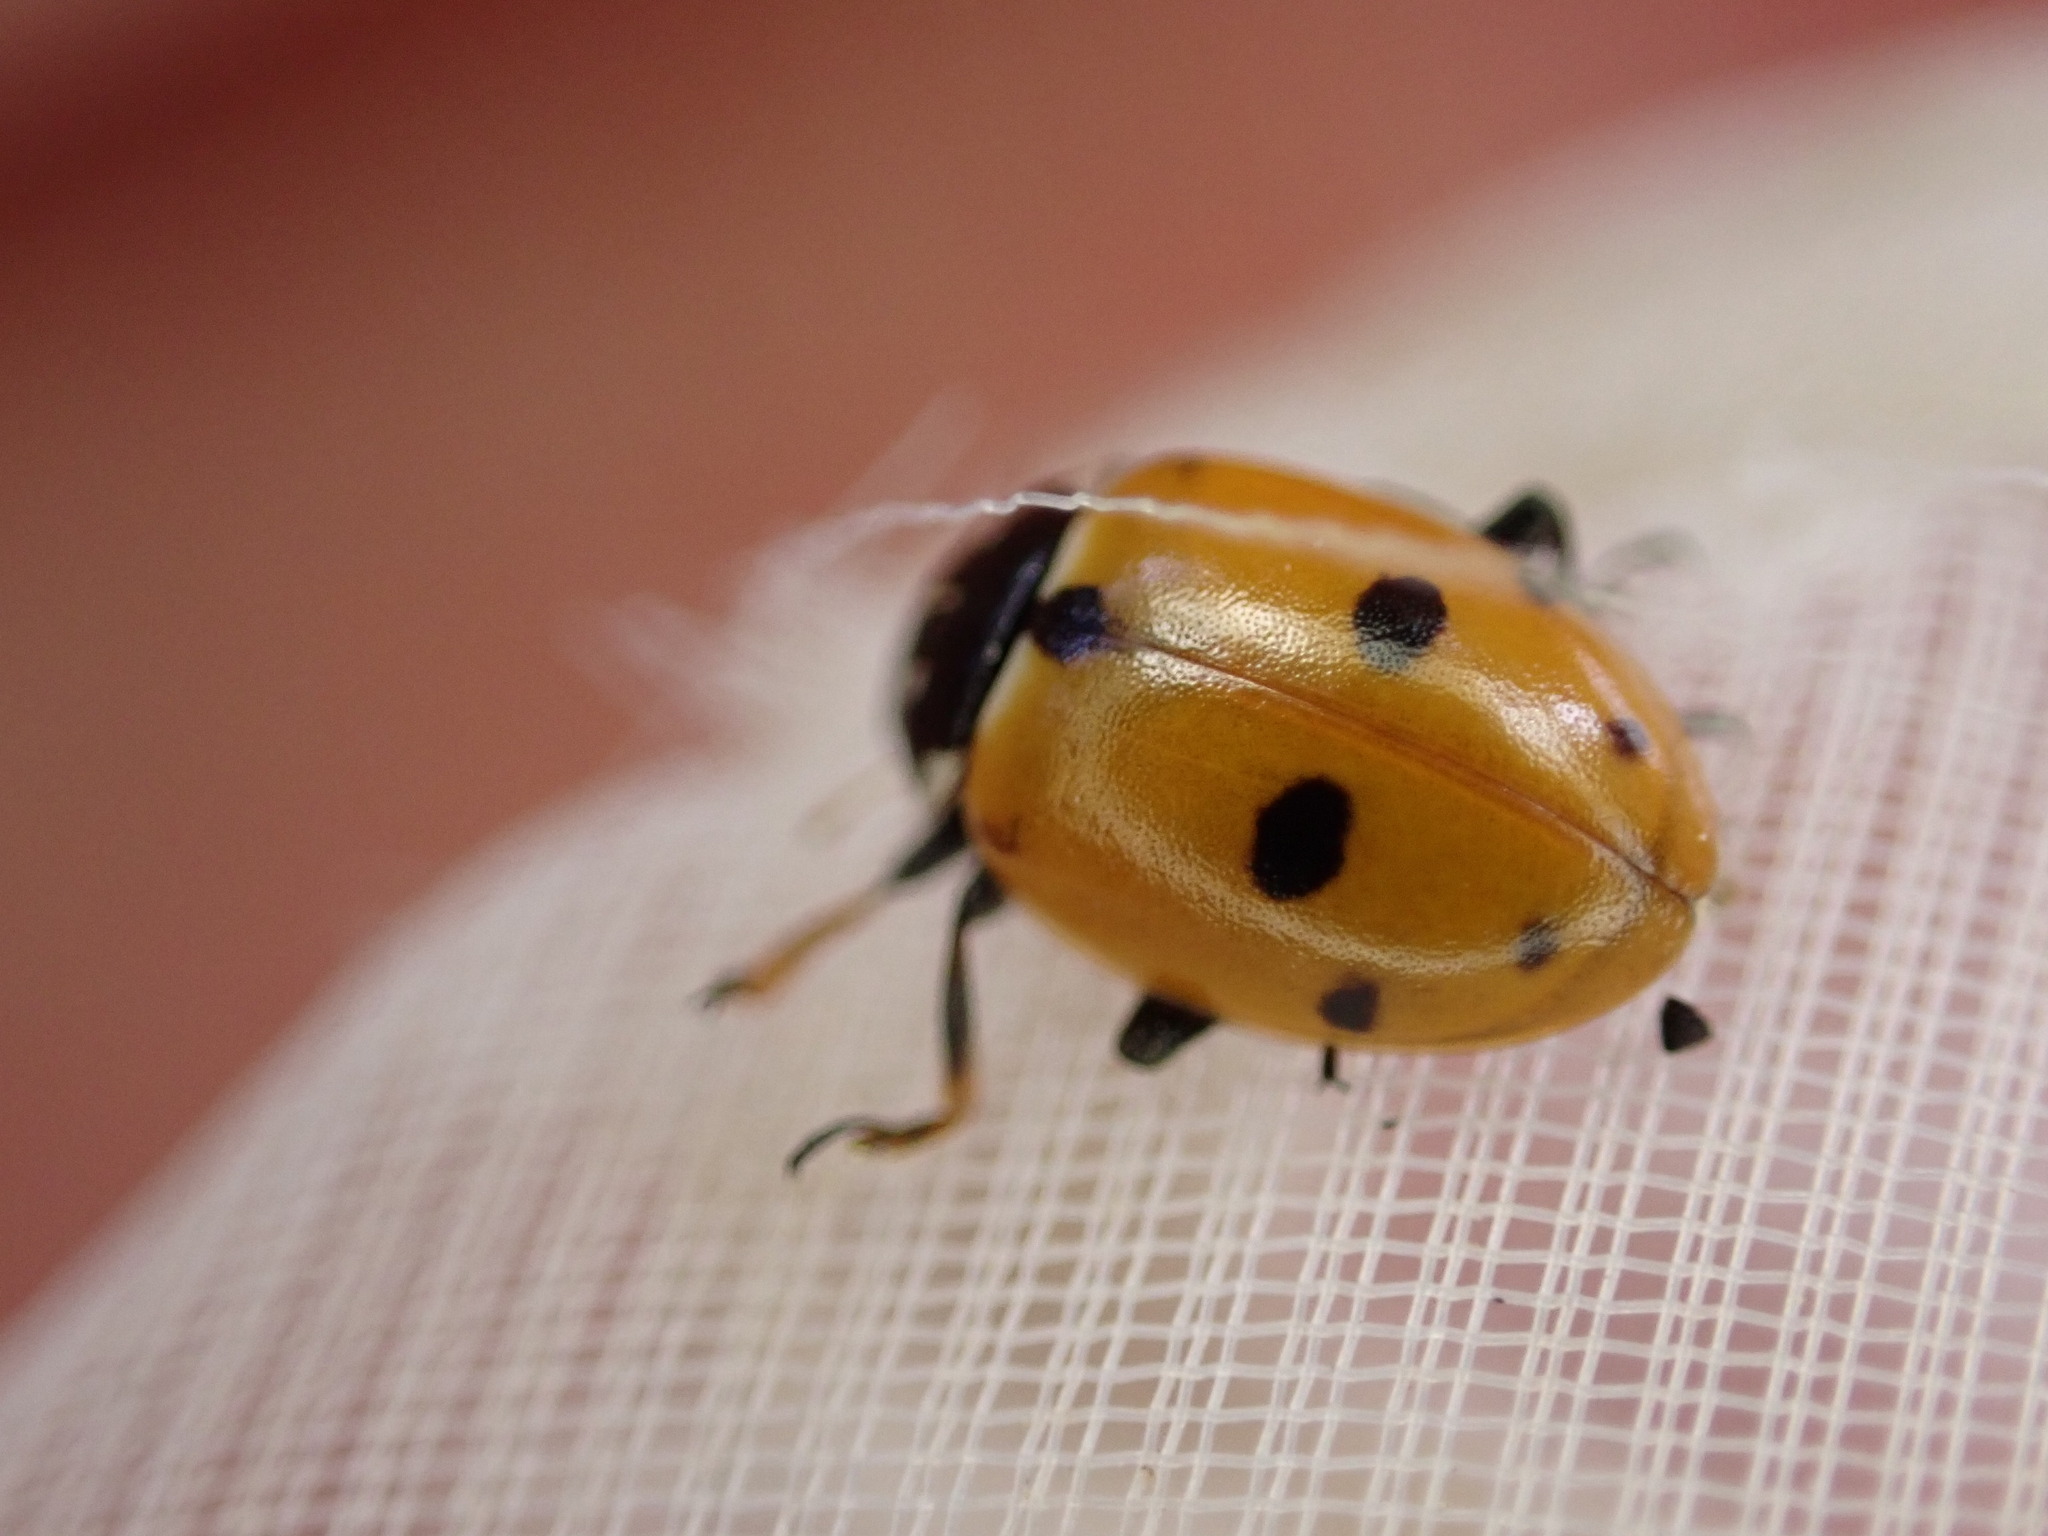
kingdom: Animalia
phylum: Arthropoda
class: Insecta
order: Coleoptera
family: Coccinellidae
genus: Hippodamia
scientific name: Hippodamia variegata
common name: Ladybird beetle
